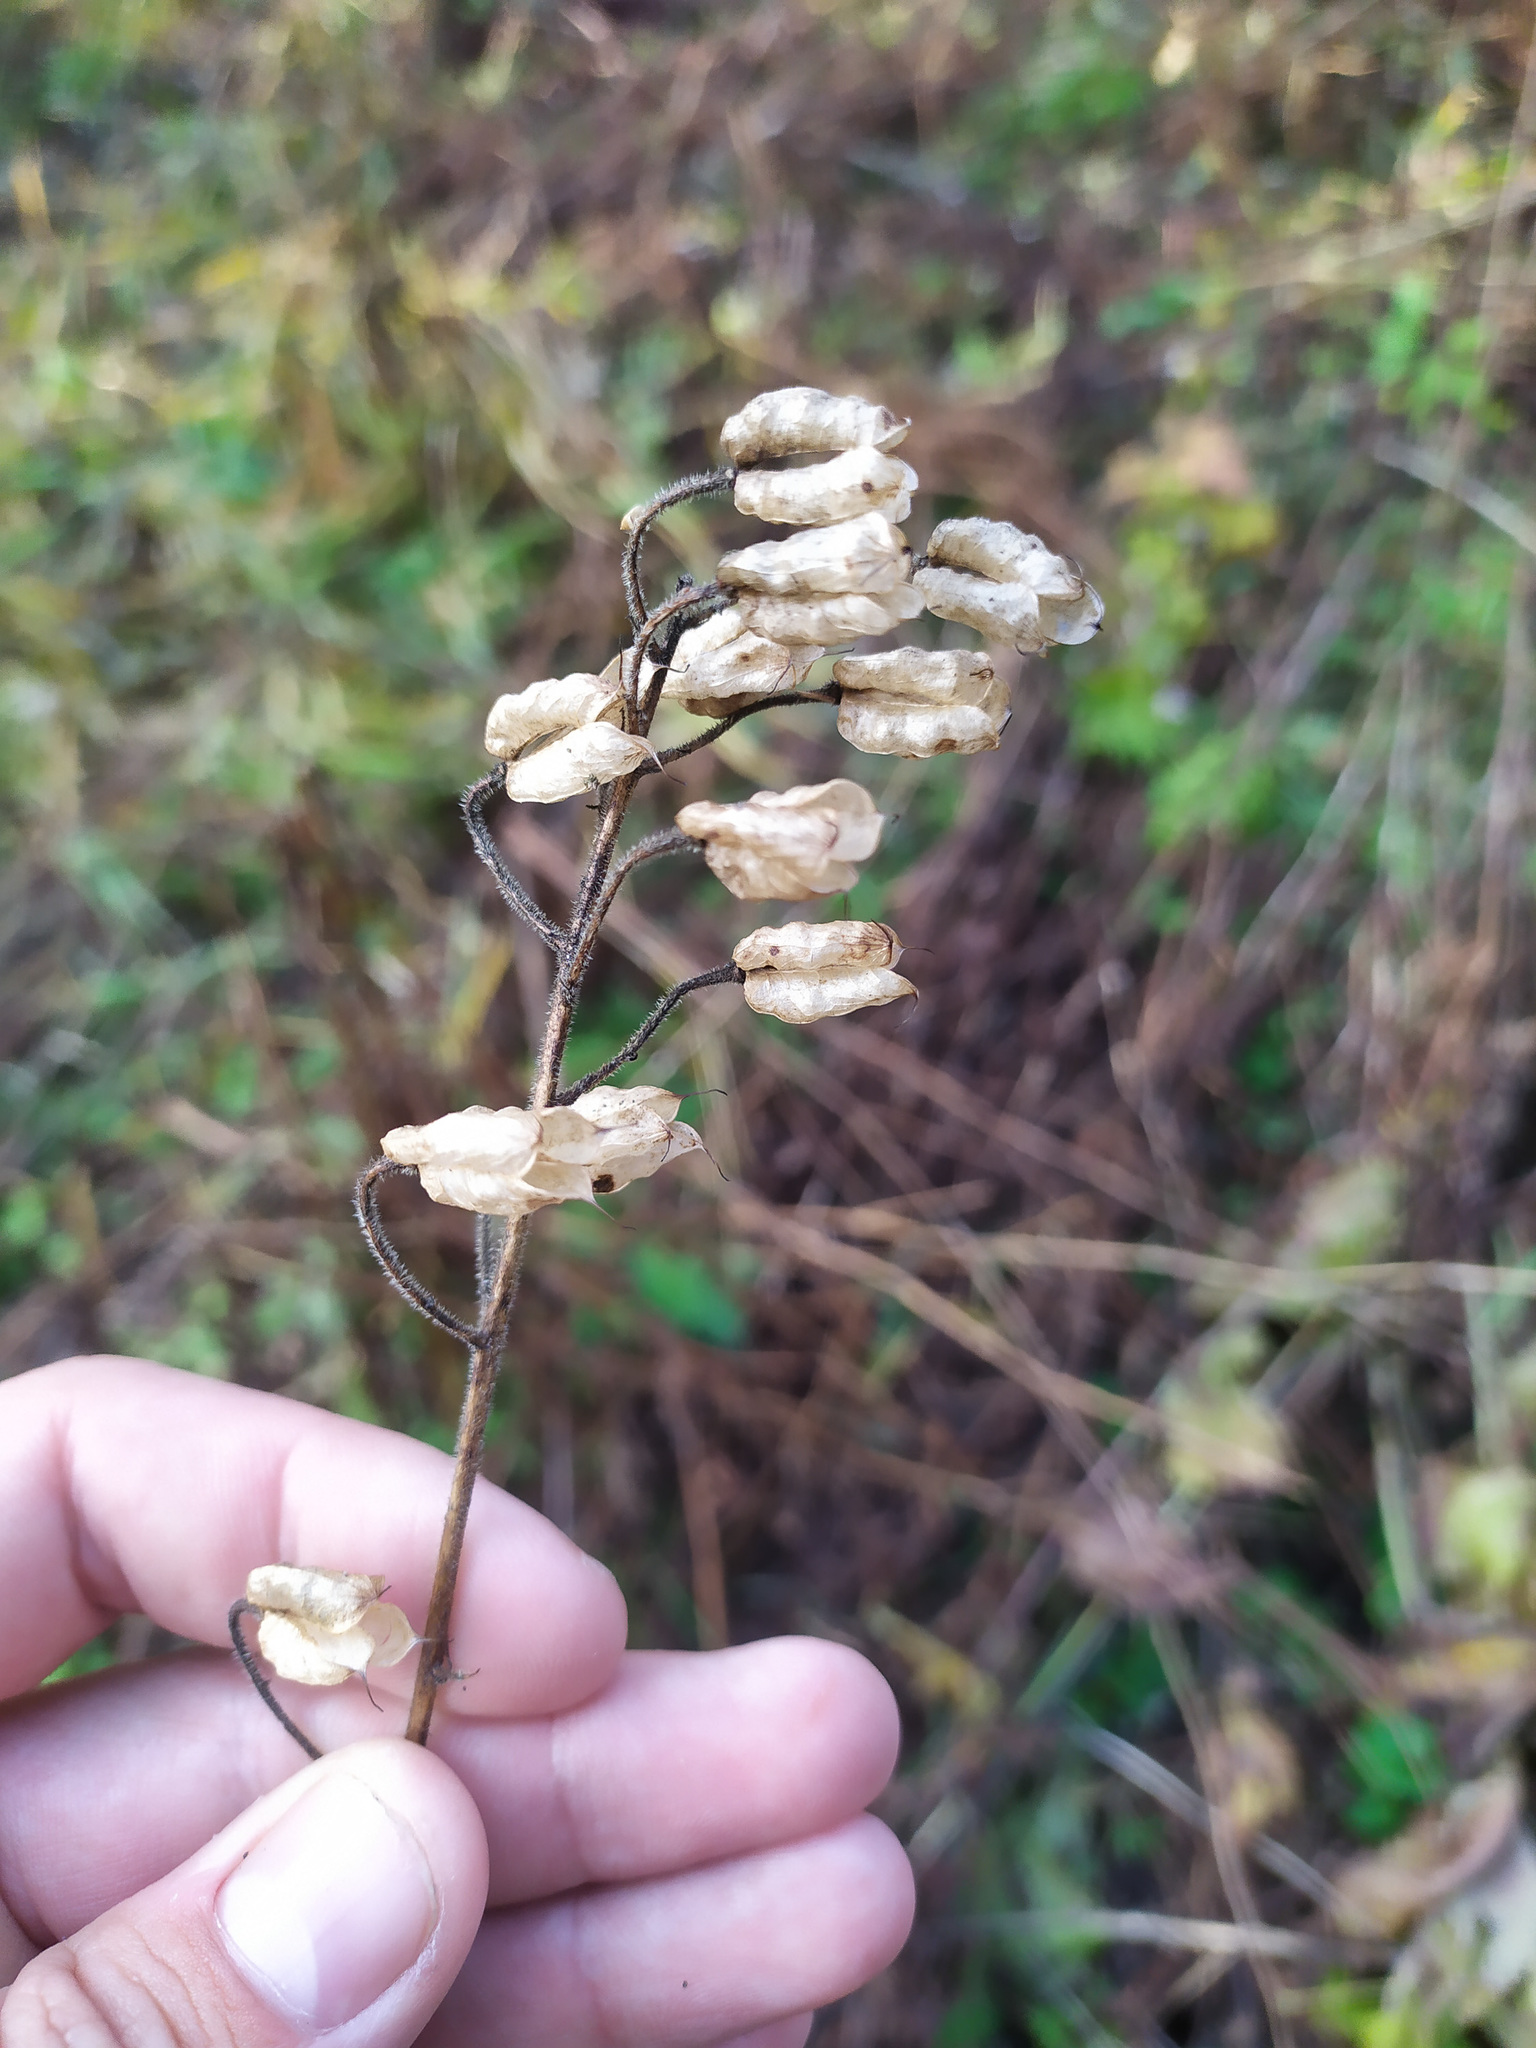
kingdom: Plantae
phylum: Tracheophyta
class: Magnoliopsida
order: Ranunculales
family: Ranunculaceae
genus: Delphinium
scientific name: Delphinium elatum
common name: Candle larkspur
